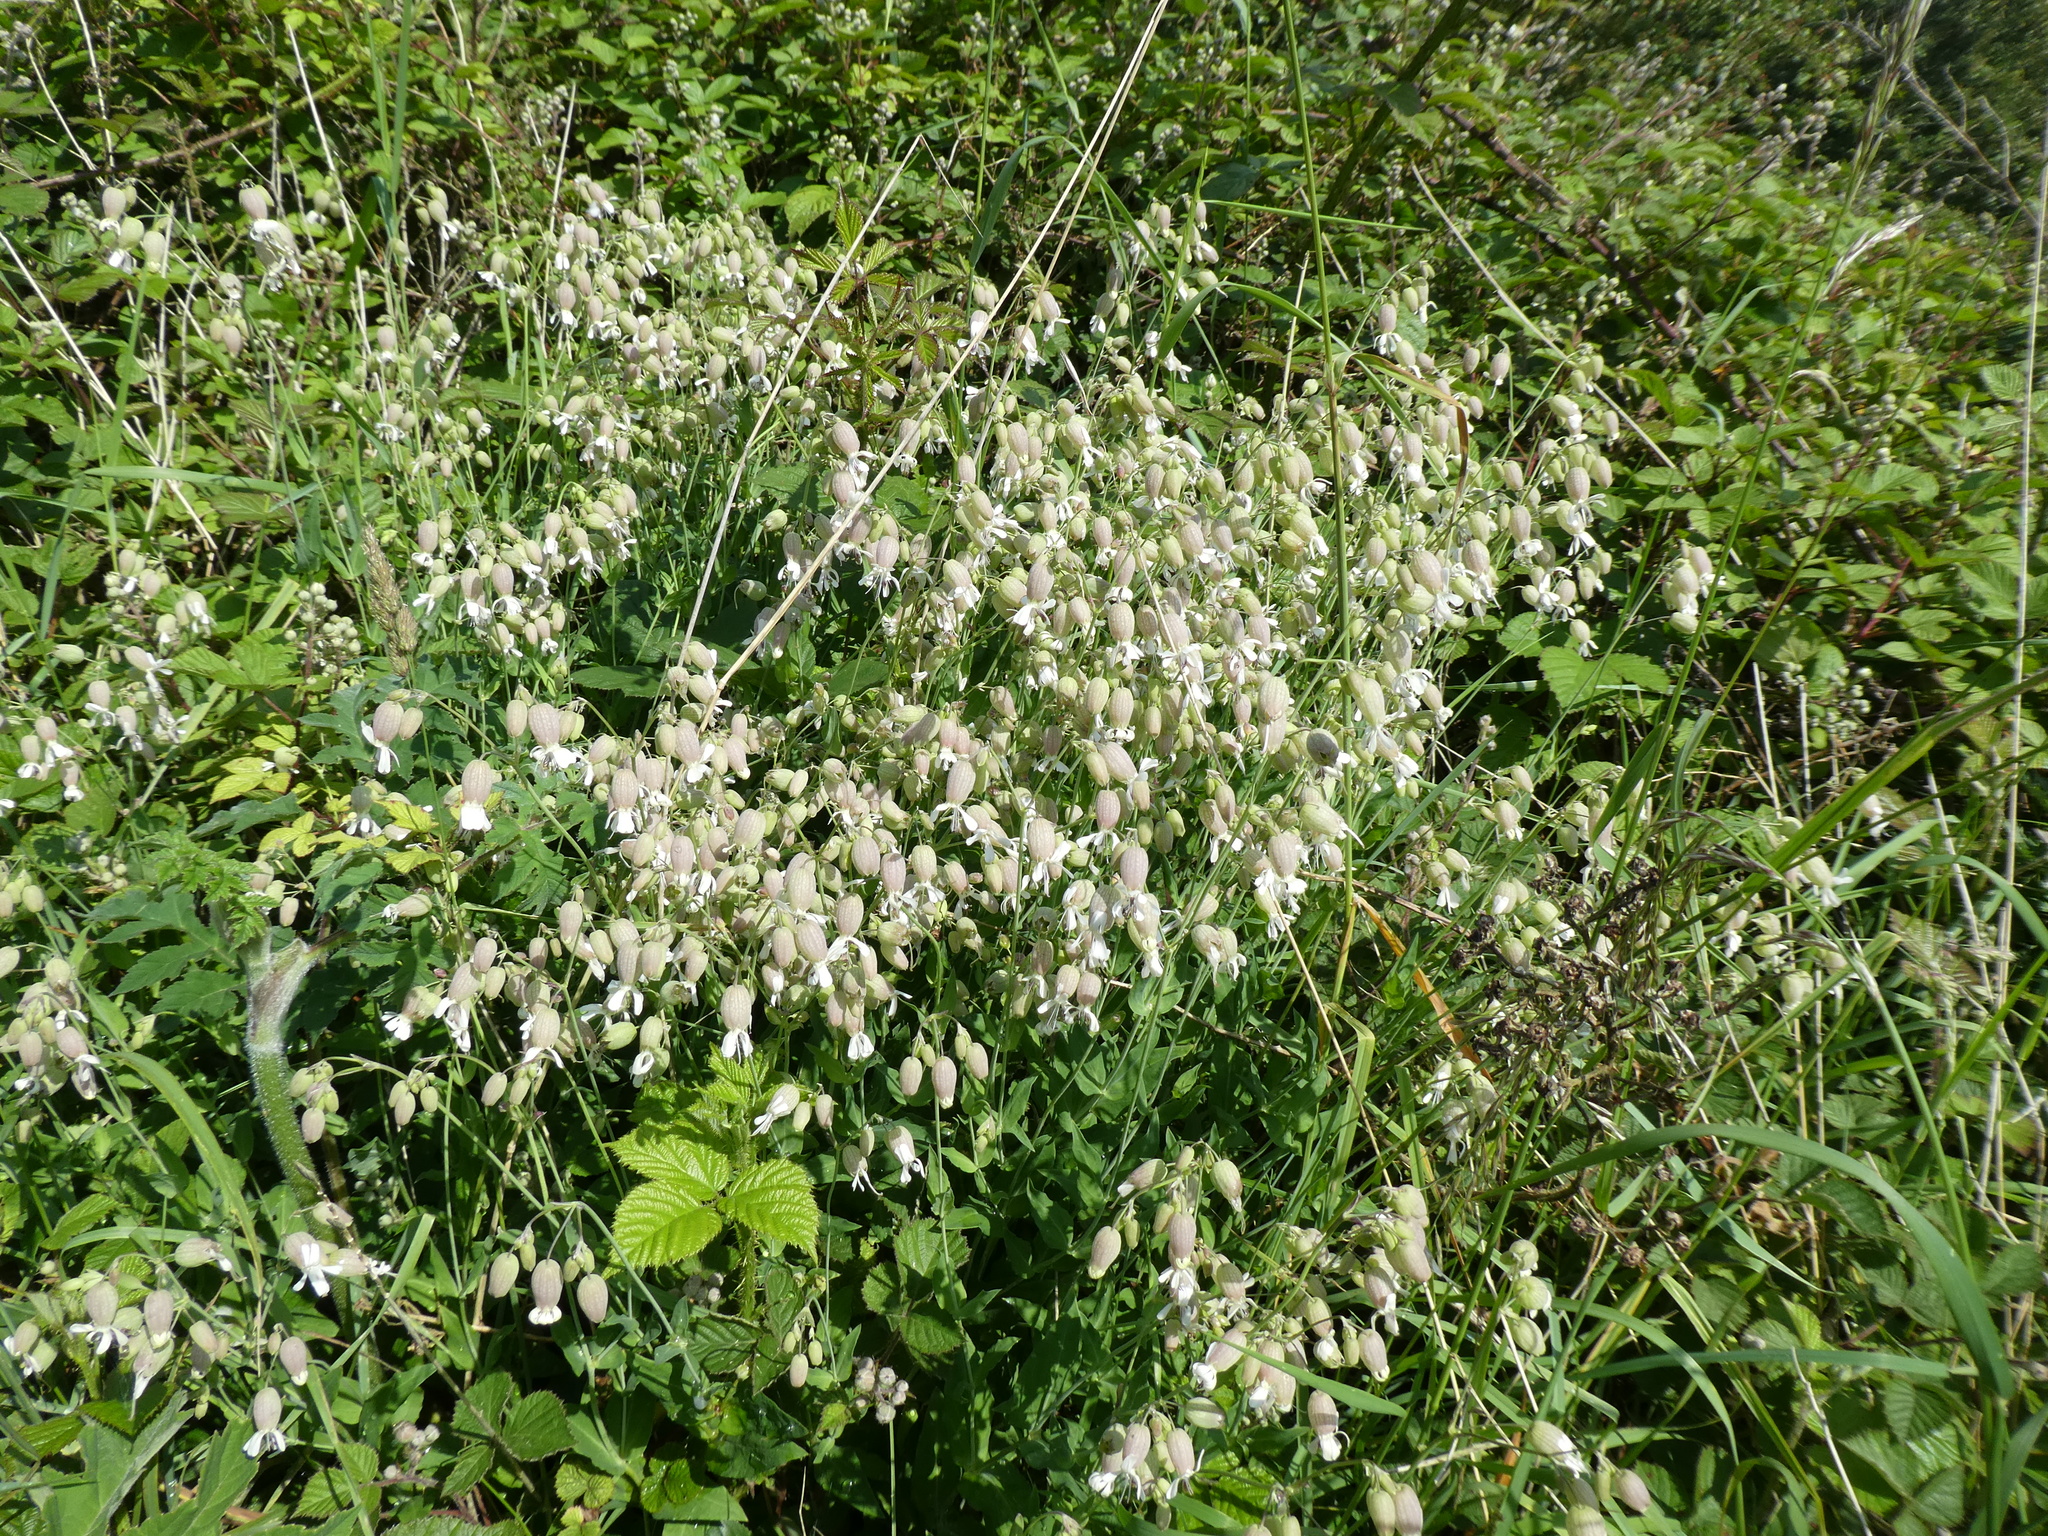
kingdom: Plantae
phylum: Tracheophyta
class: Magnoliopsida
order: Caryophyllales
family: Caryophyllaceae
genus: Silene
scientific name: Silene vulgaris
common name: Bladder campion
